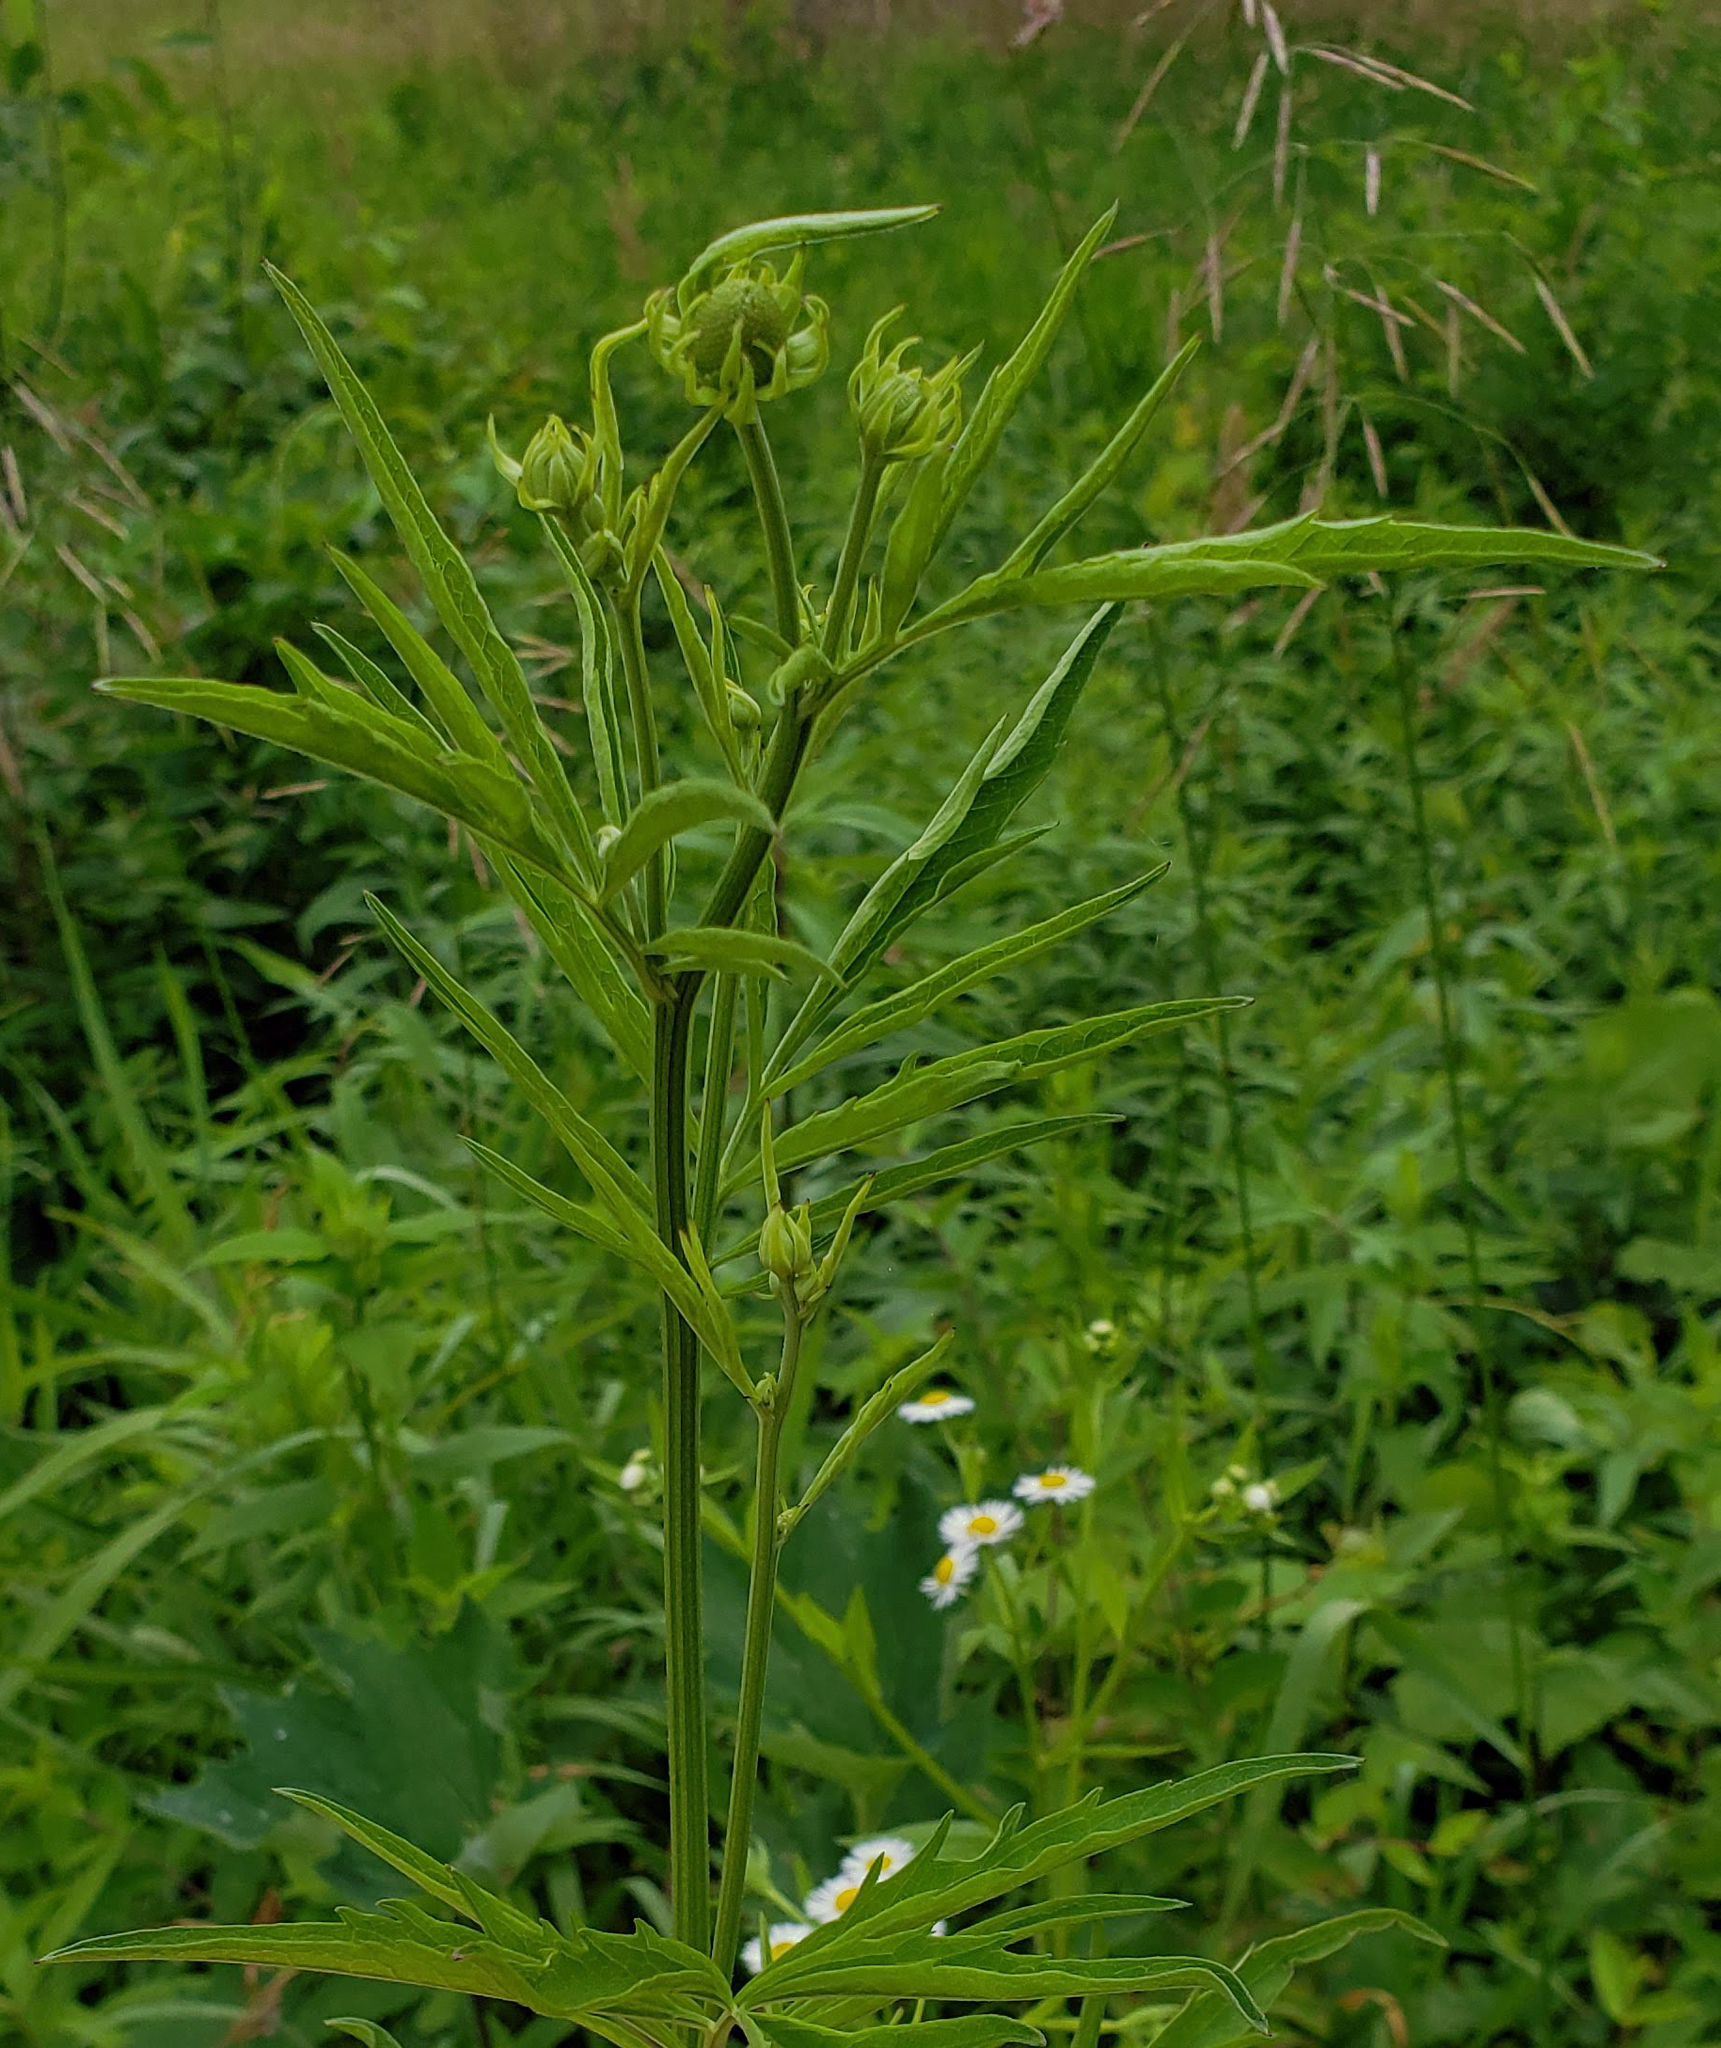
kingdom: Plantae
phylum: Tracheophyta
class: Magnoliopsida
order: Asterales
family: Asteraceae
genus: Ratibida
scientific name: Ratibida pinnata
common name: Drooping prairie-coneflower
